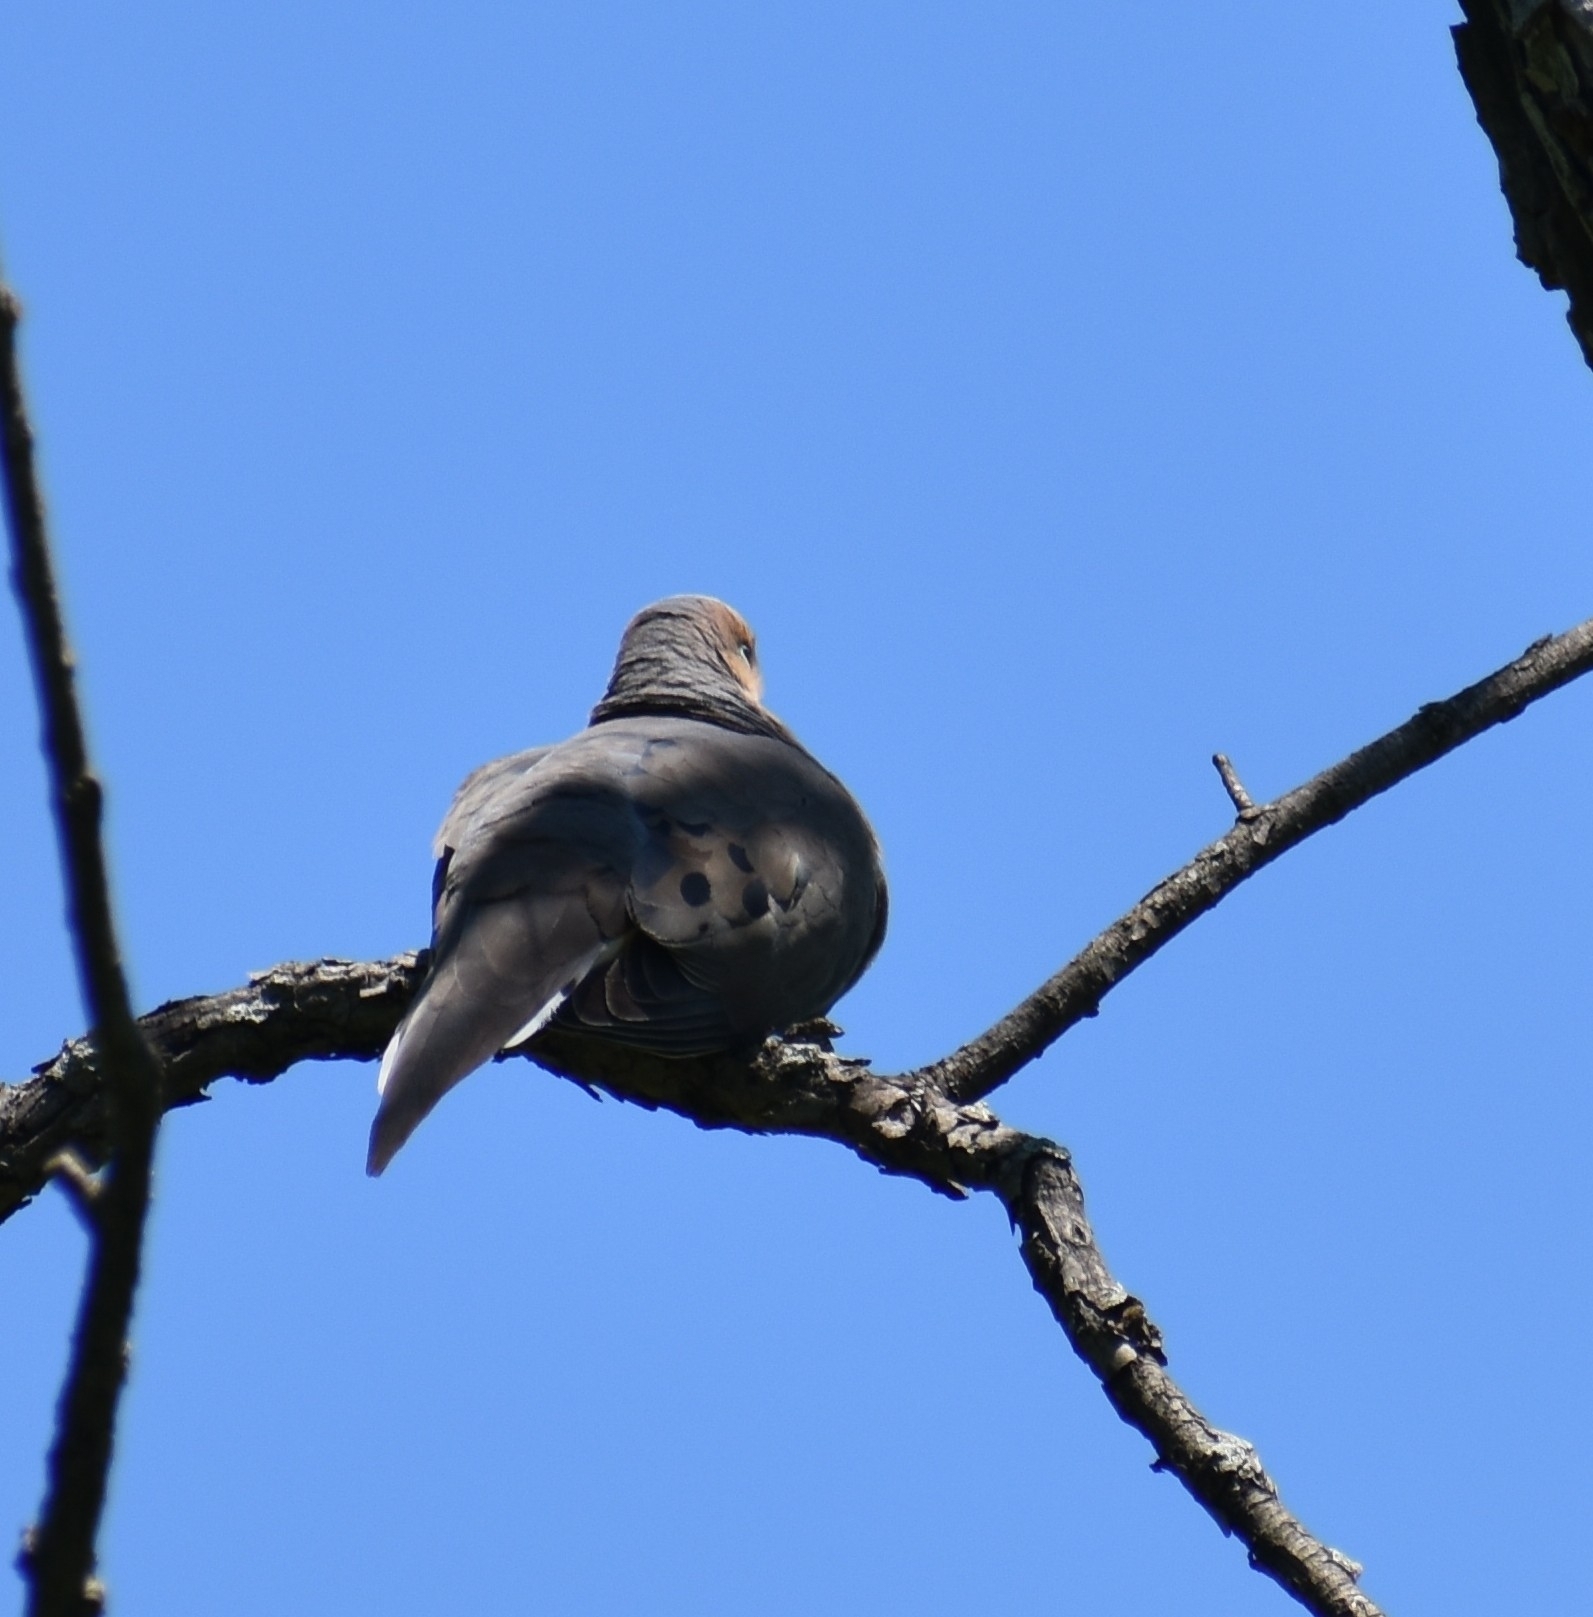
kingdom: Animalia
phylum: Chordata
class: Aves
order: Columbiformes
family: Columbidae
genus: Zenaida
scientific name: Zenaida macroura
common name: Mourning dove
